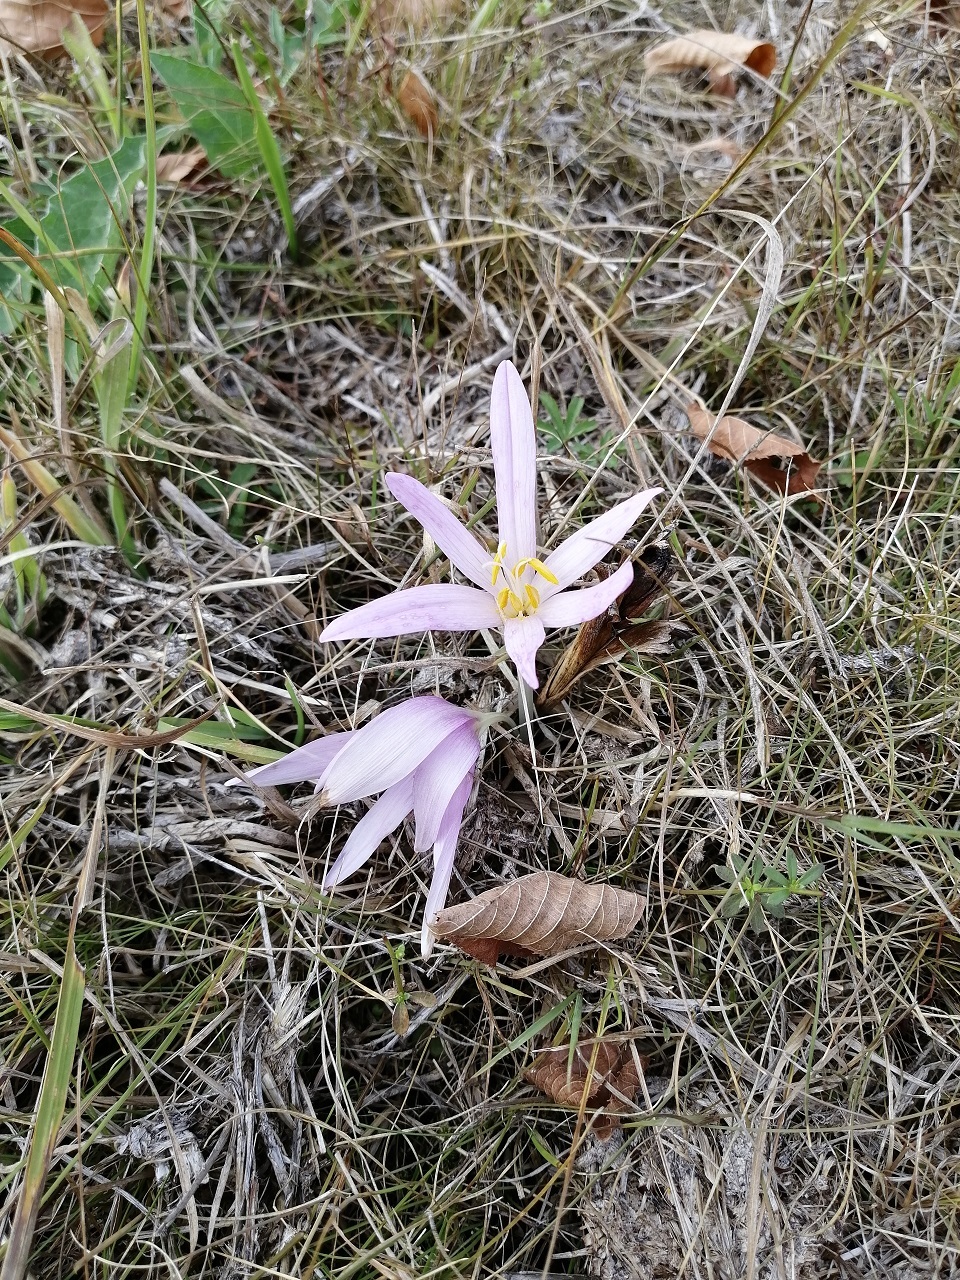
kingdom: Plantae
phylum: Tracheophyta
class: Liliopsida
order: Liliales
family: Colchicaceae
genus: Colchicum
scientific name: Colchicum autumnale
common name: Autumn crocus
